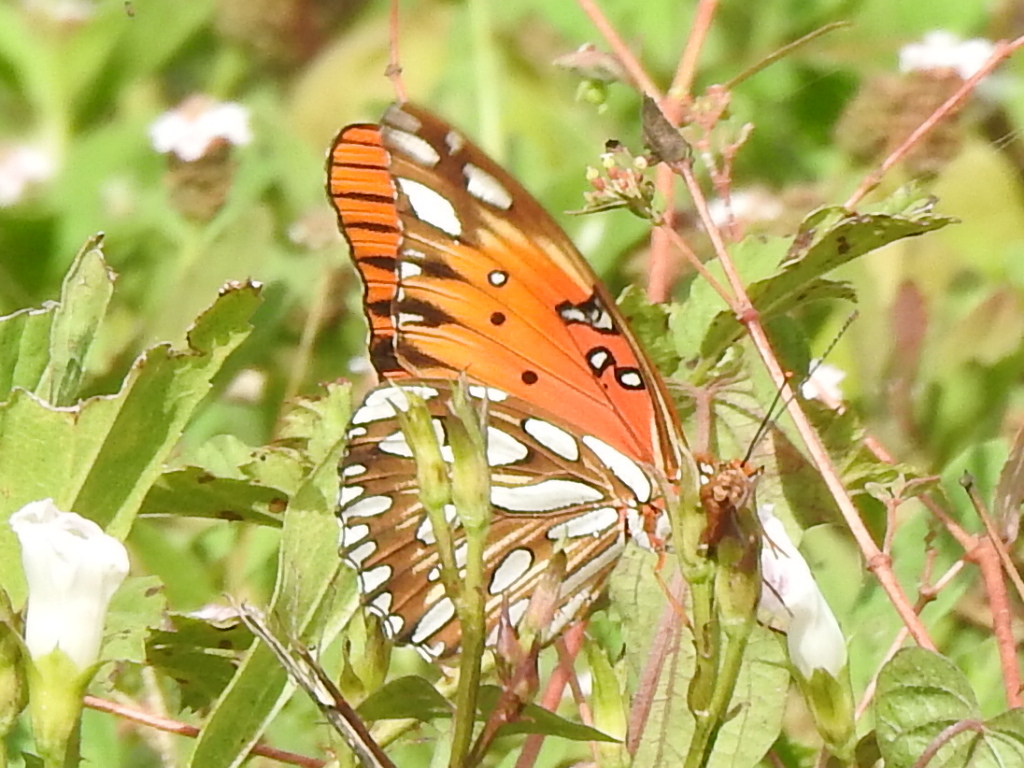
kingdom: Animalia
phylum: Arthropoda
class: Insecta
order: Lepidoptera
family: Nymphalidae
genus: Dione
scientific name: Dione vanillae
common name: Gulf fritillary
